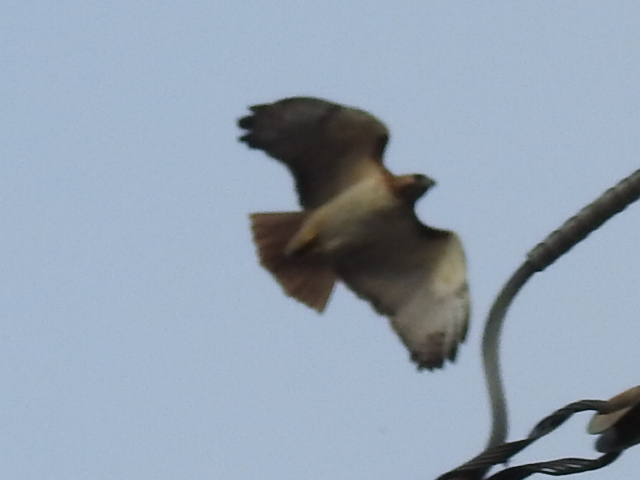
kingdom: Animalia
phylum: Chordata
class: Aves
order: Accipitriformes
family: Accipitridae
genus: Buteo
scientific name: Buteo jamaicensis
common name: Red-tailed hawk
